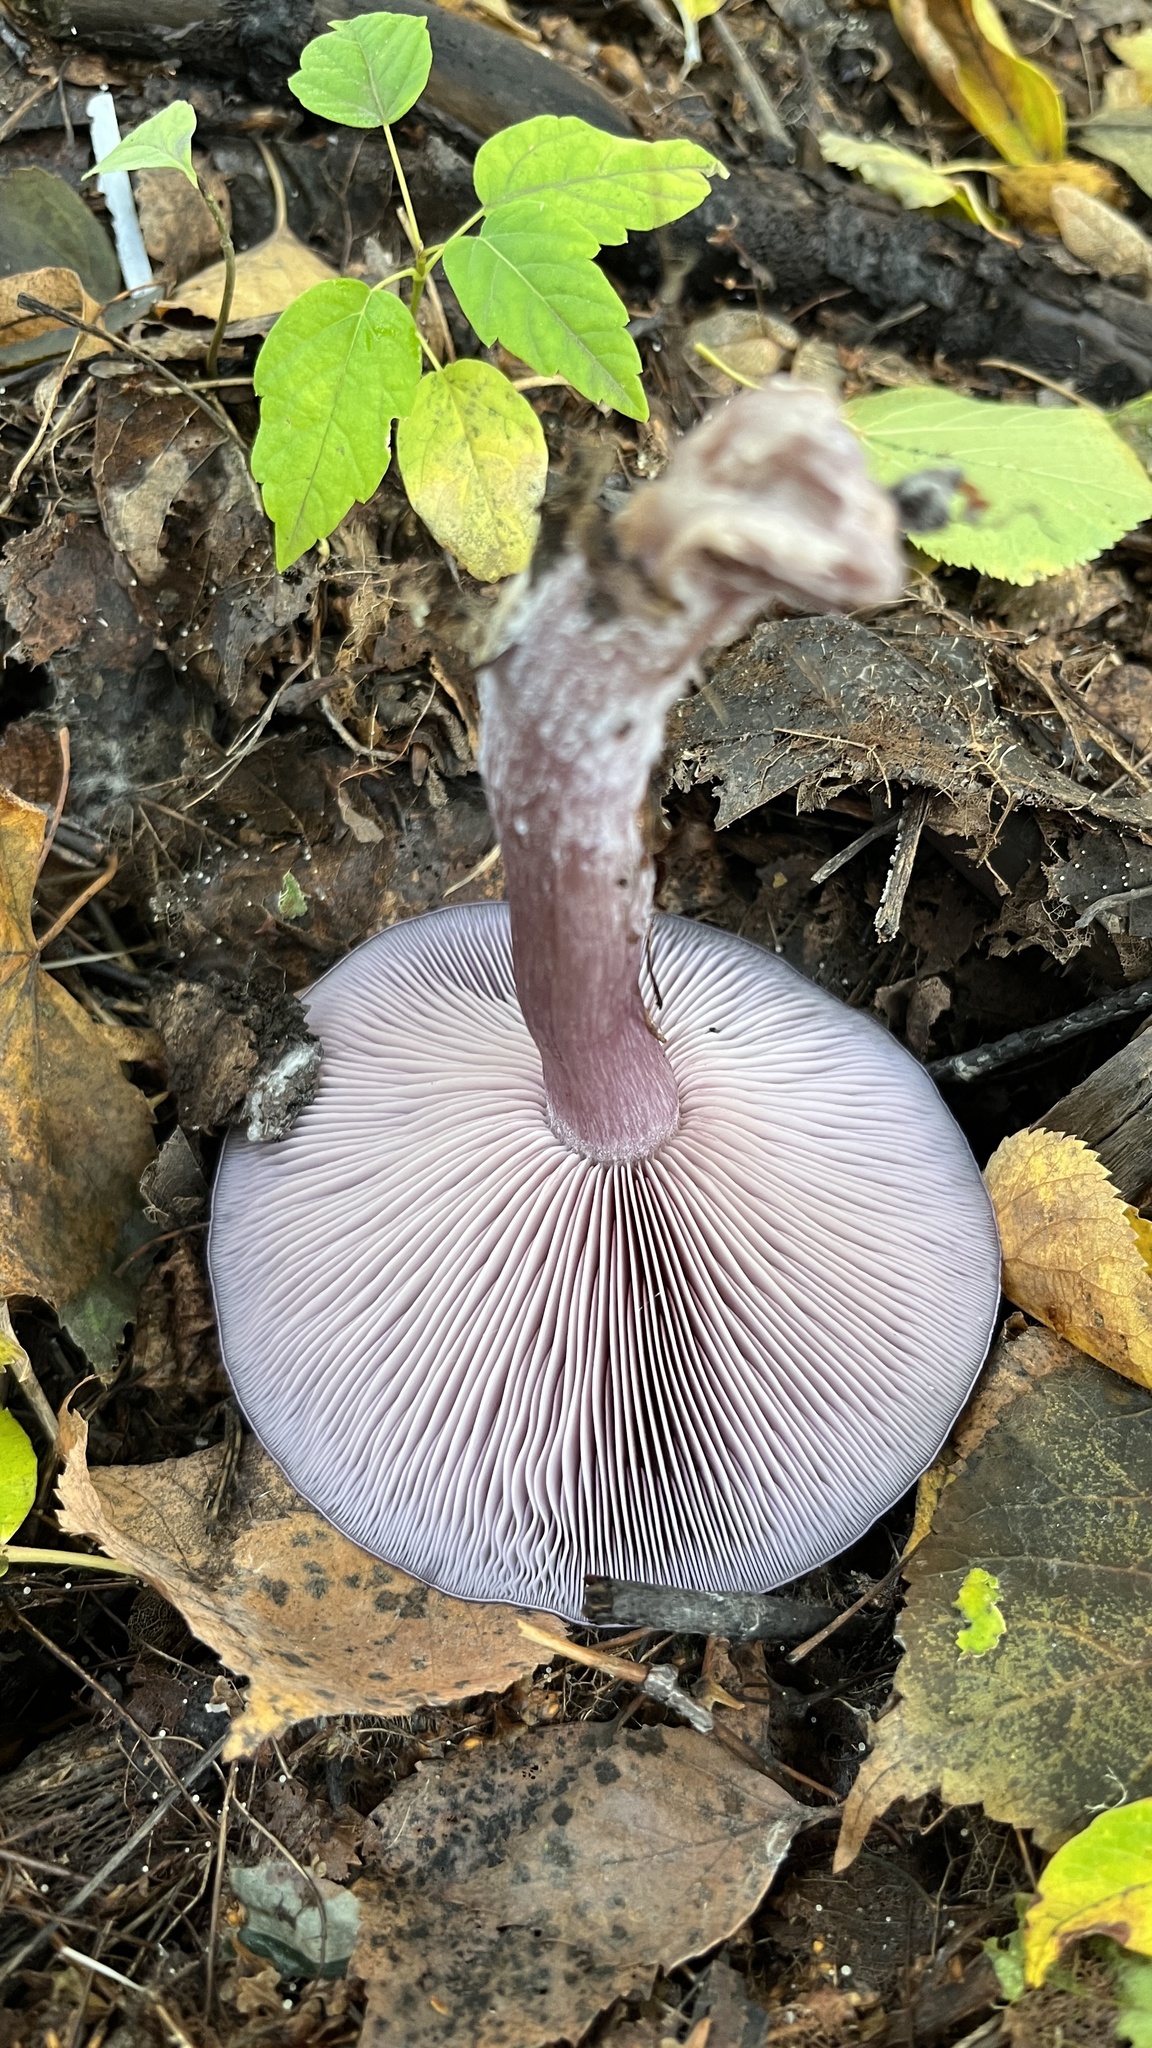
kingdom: Fungi
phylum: Basidiomycota
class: Agaricomycetes
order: Agaricales
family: Tricholomataceae
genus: Collybia
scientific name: Collybia
